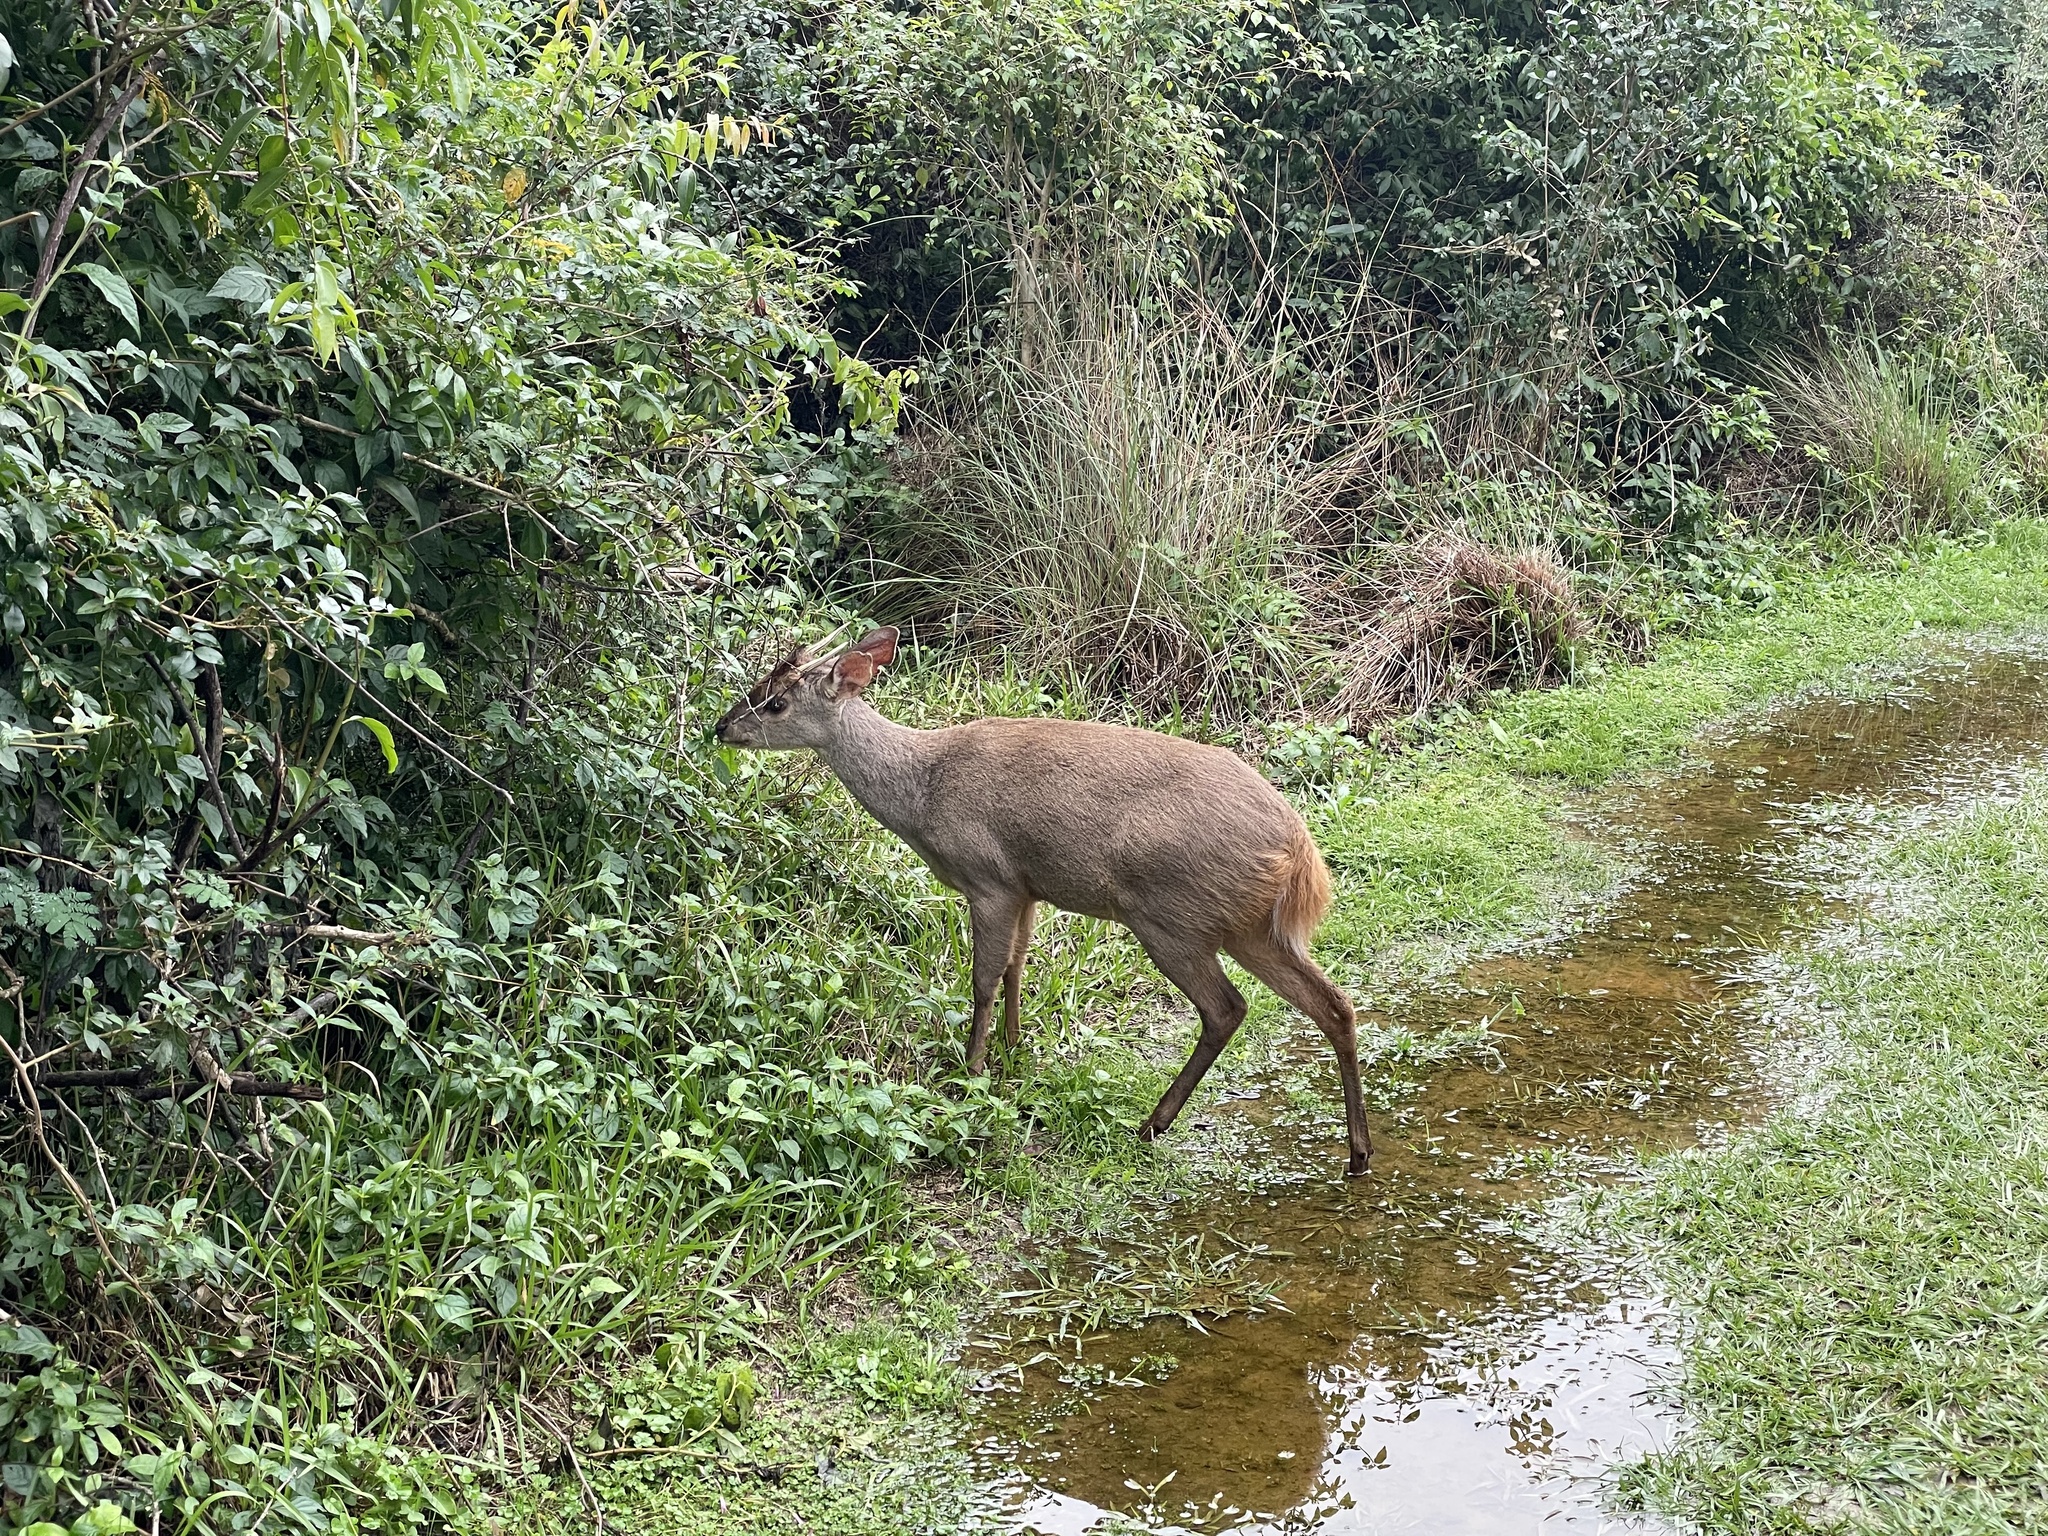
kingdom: Animalia
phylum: Chordata
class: Mammalia
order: Artiodactyla
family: Cervidae
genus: Mazama
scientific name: Mazama gouazoubira
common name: Gray brocket
